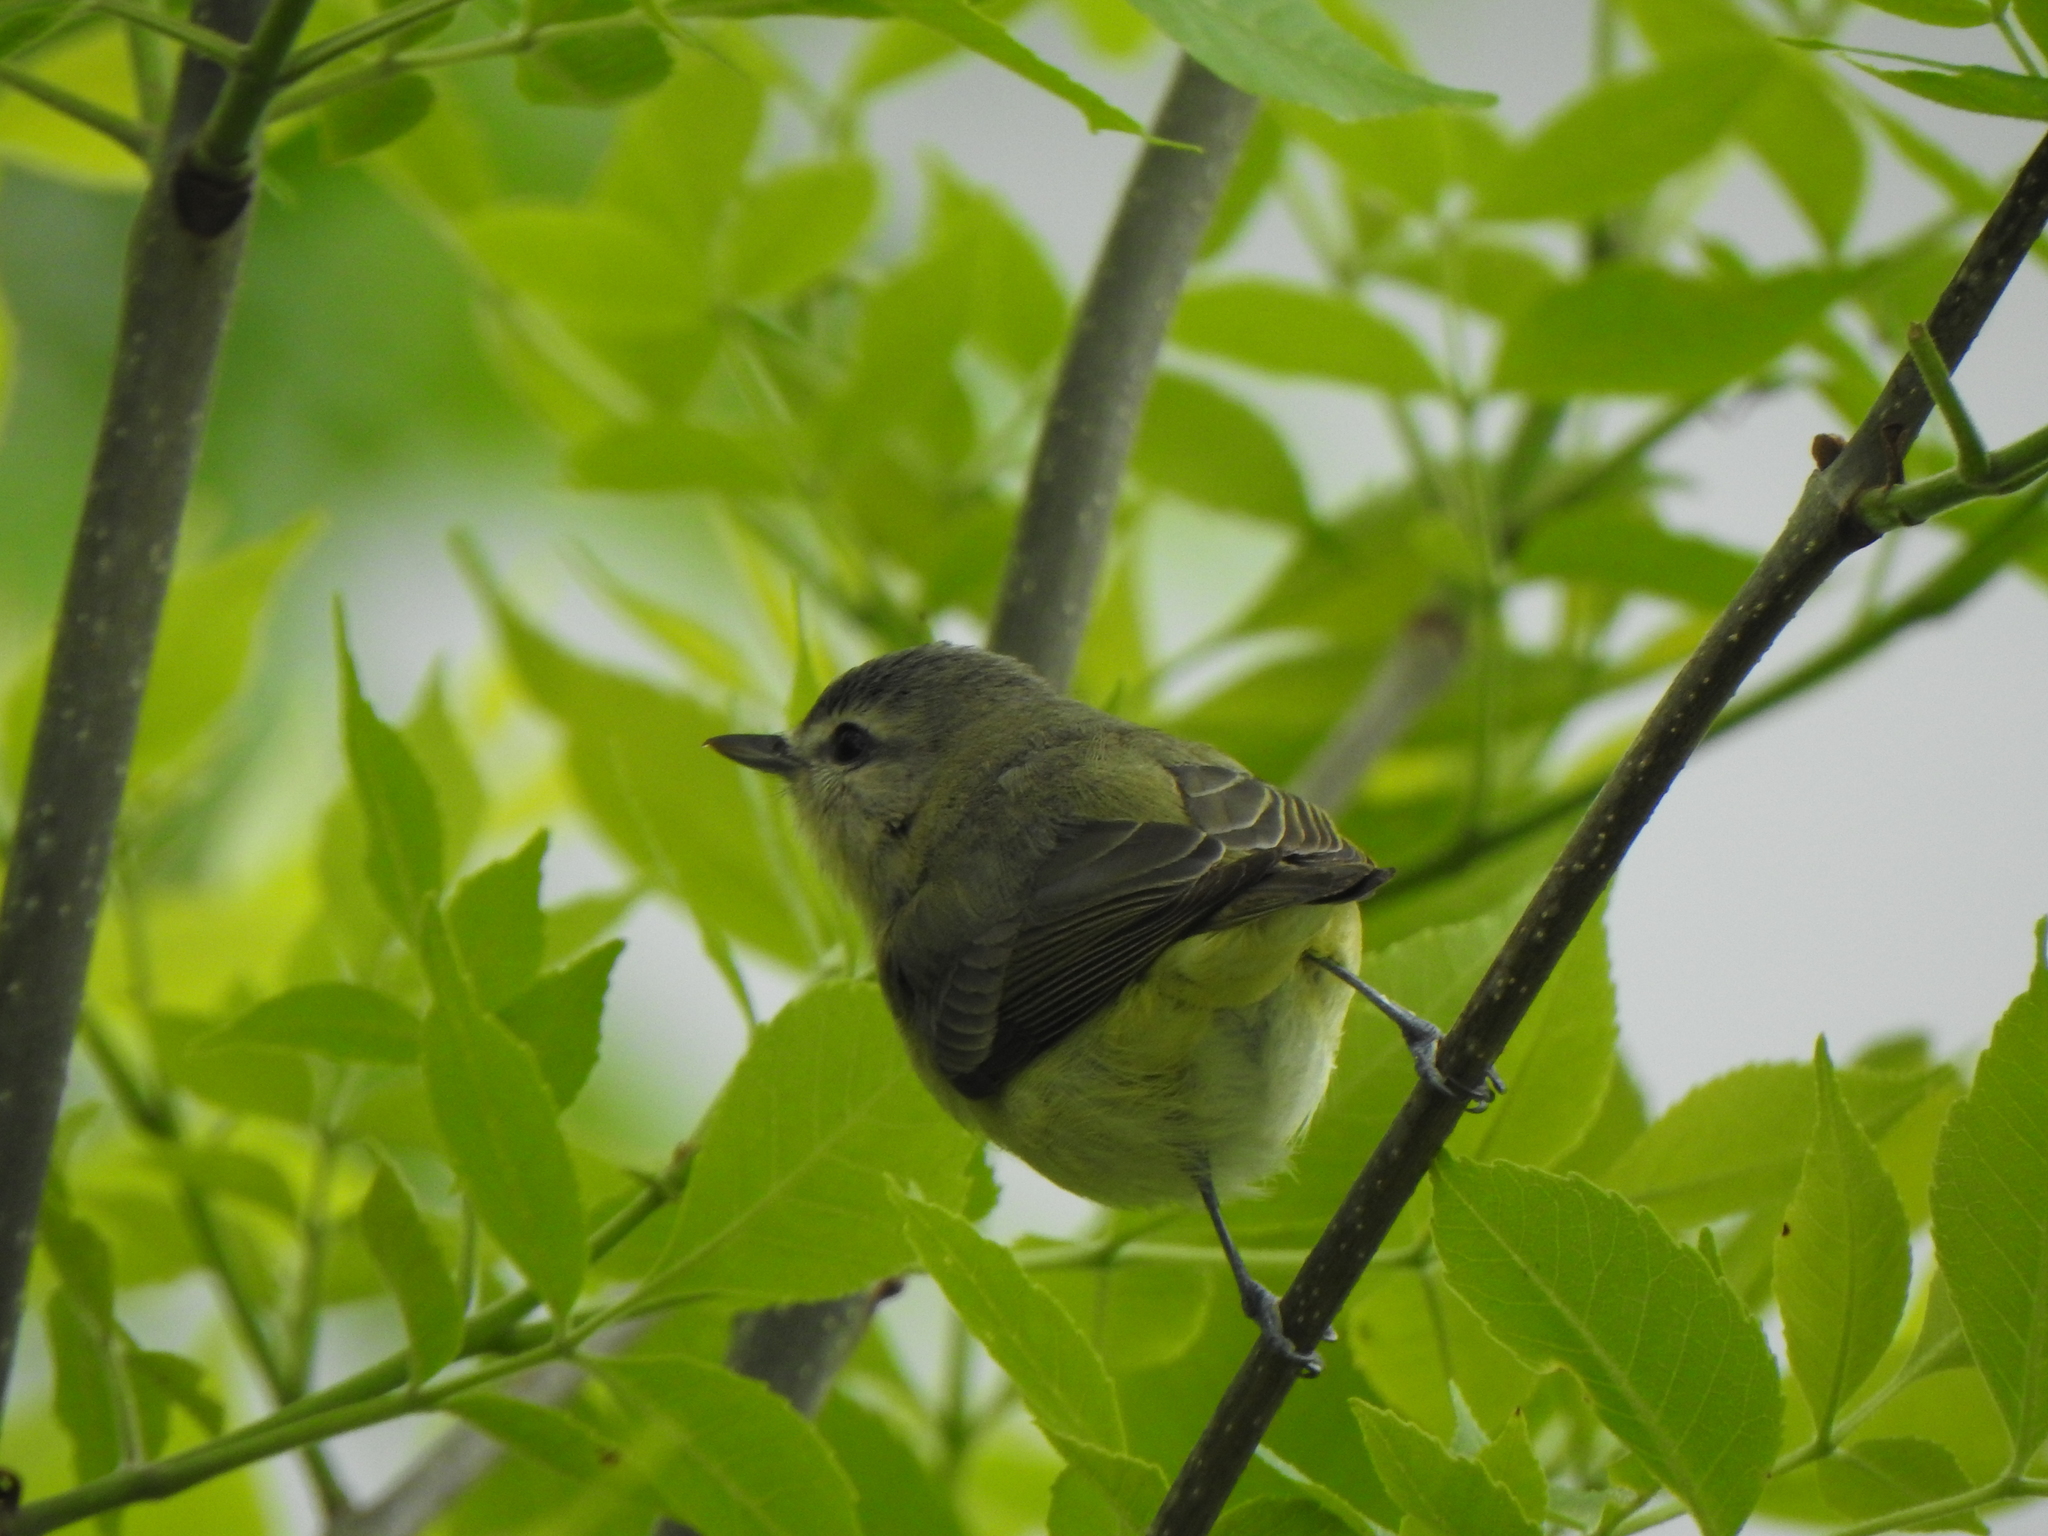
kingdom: Animalia
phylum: Chordata
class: Aves
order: Passeriformes
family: Vireonidae
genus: Vireo
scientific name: Vireo philadelphicus
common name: Philadelphia vireo
